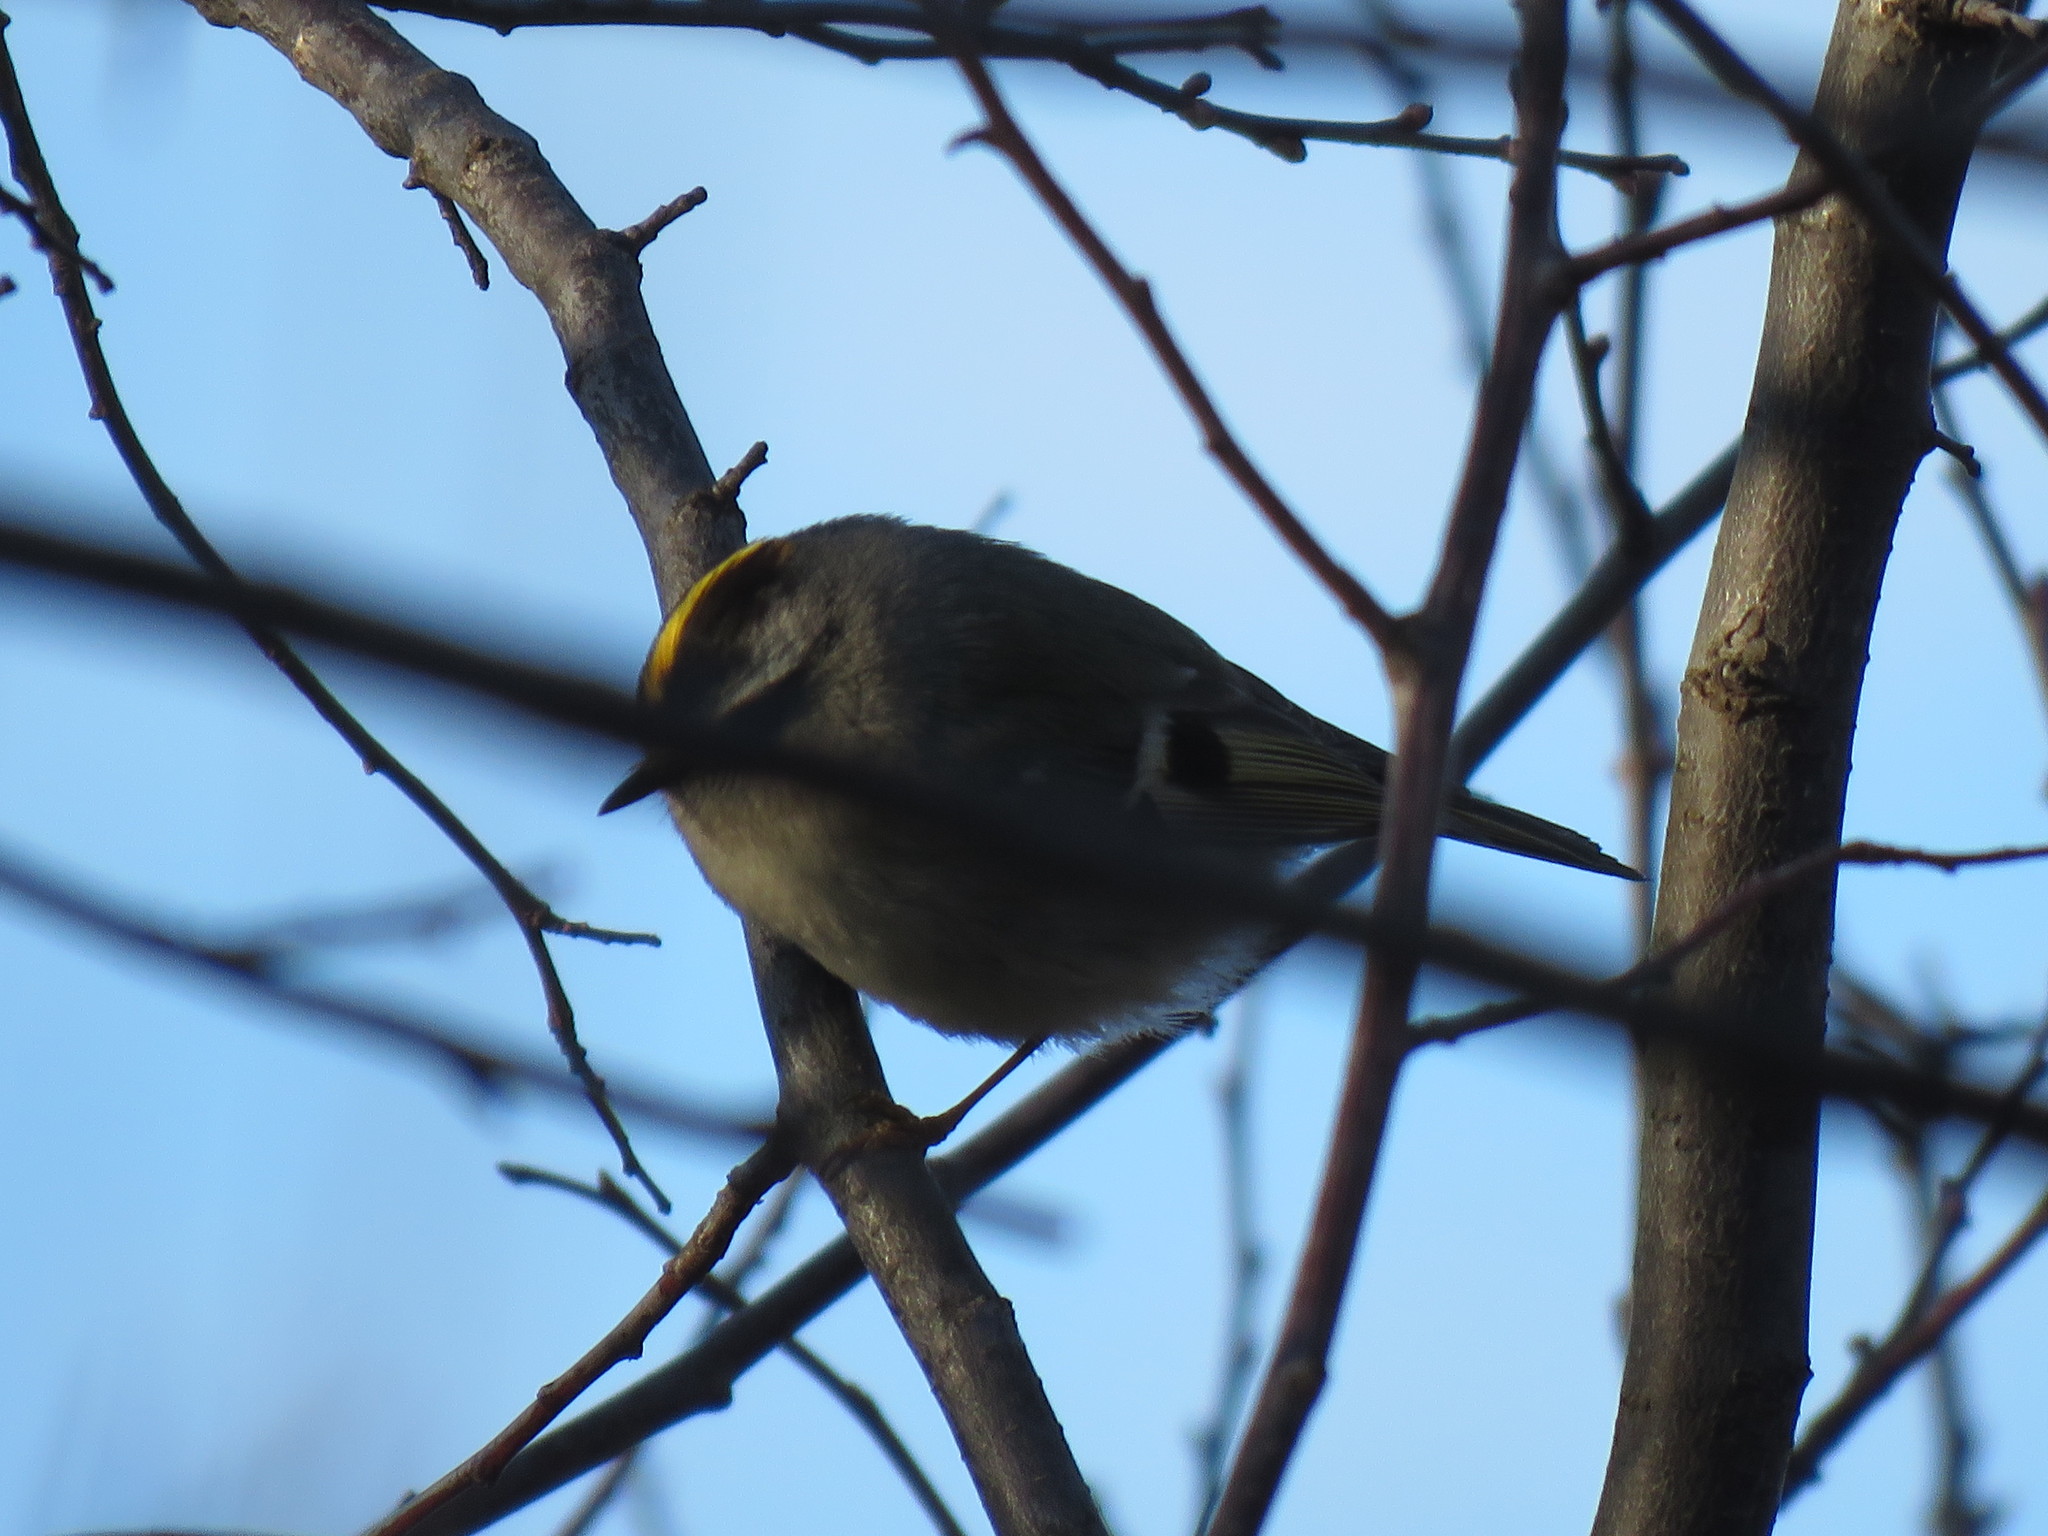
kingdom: Animalia
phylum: Chordata
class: Aves
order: Passeriformes
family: Regulidae
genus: Regulus
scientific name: Regulus satrapa
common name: Golden-crowned kinglet
